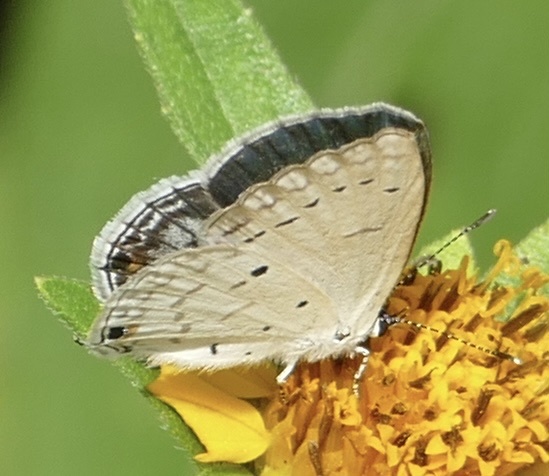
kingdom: Animalia
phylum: Arthropoda
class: Insecta
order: Lepidoptera
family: Lycaenidae
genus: Eicochrysops
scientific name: Eicochrysops hippocrates
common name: White-tipped blue
